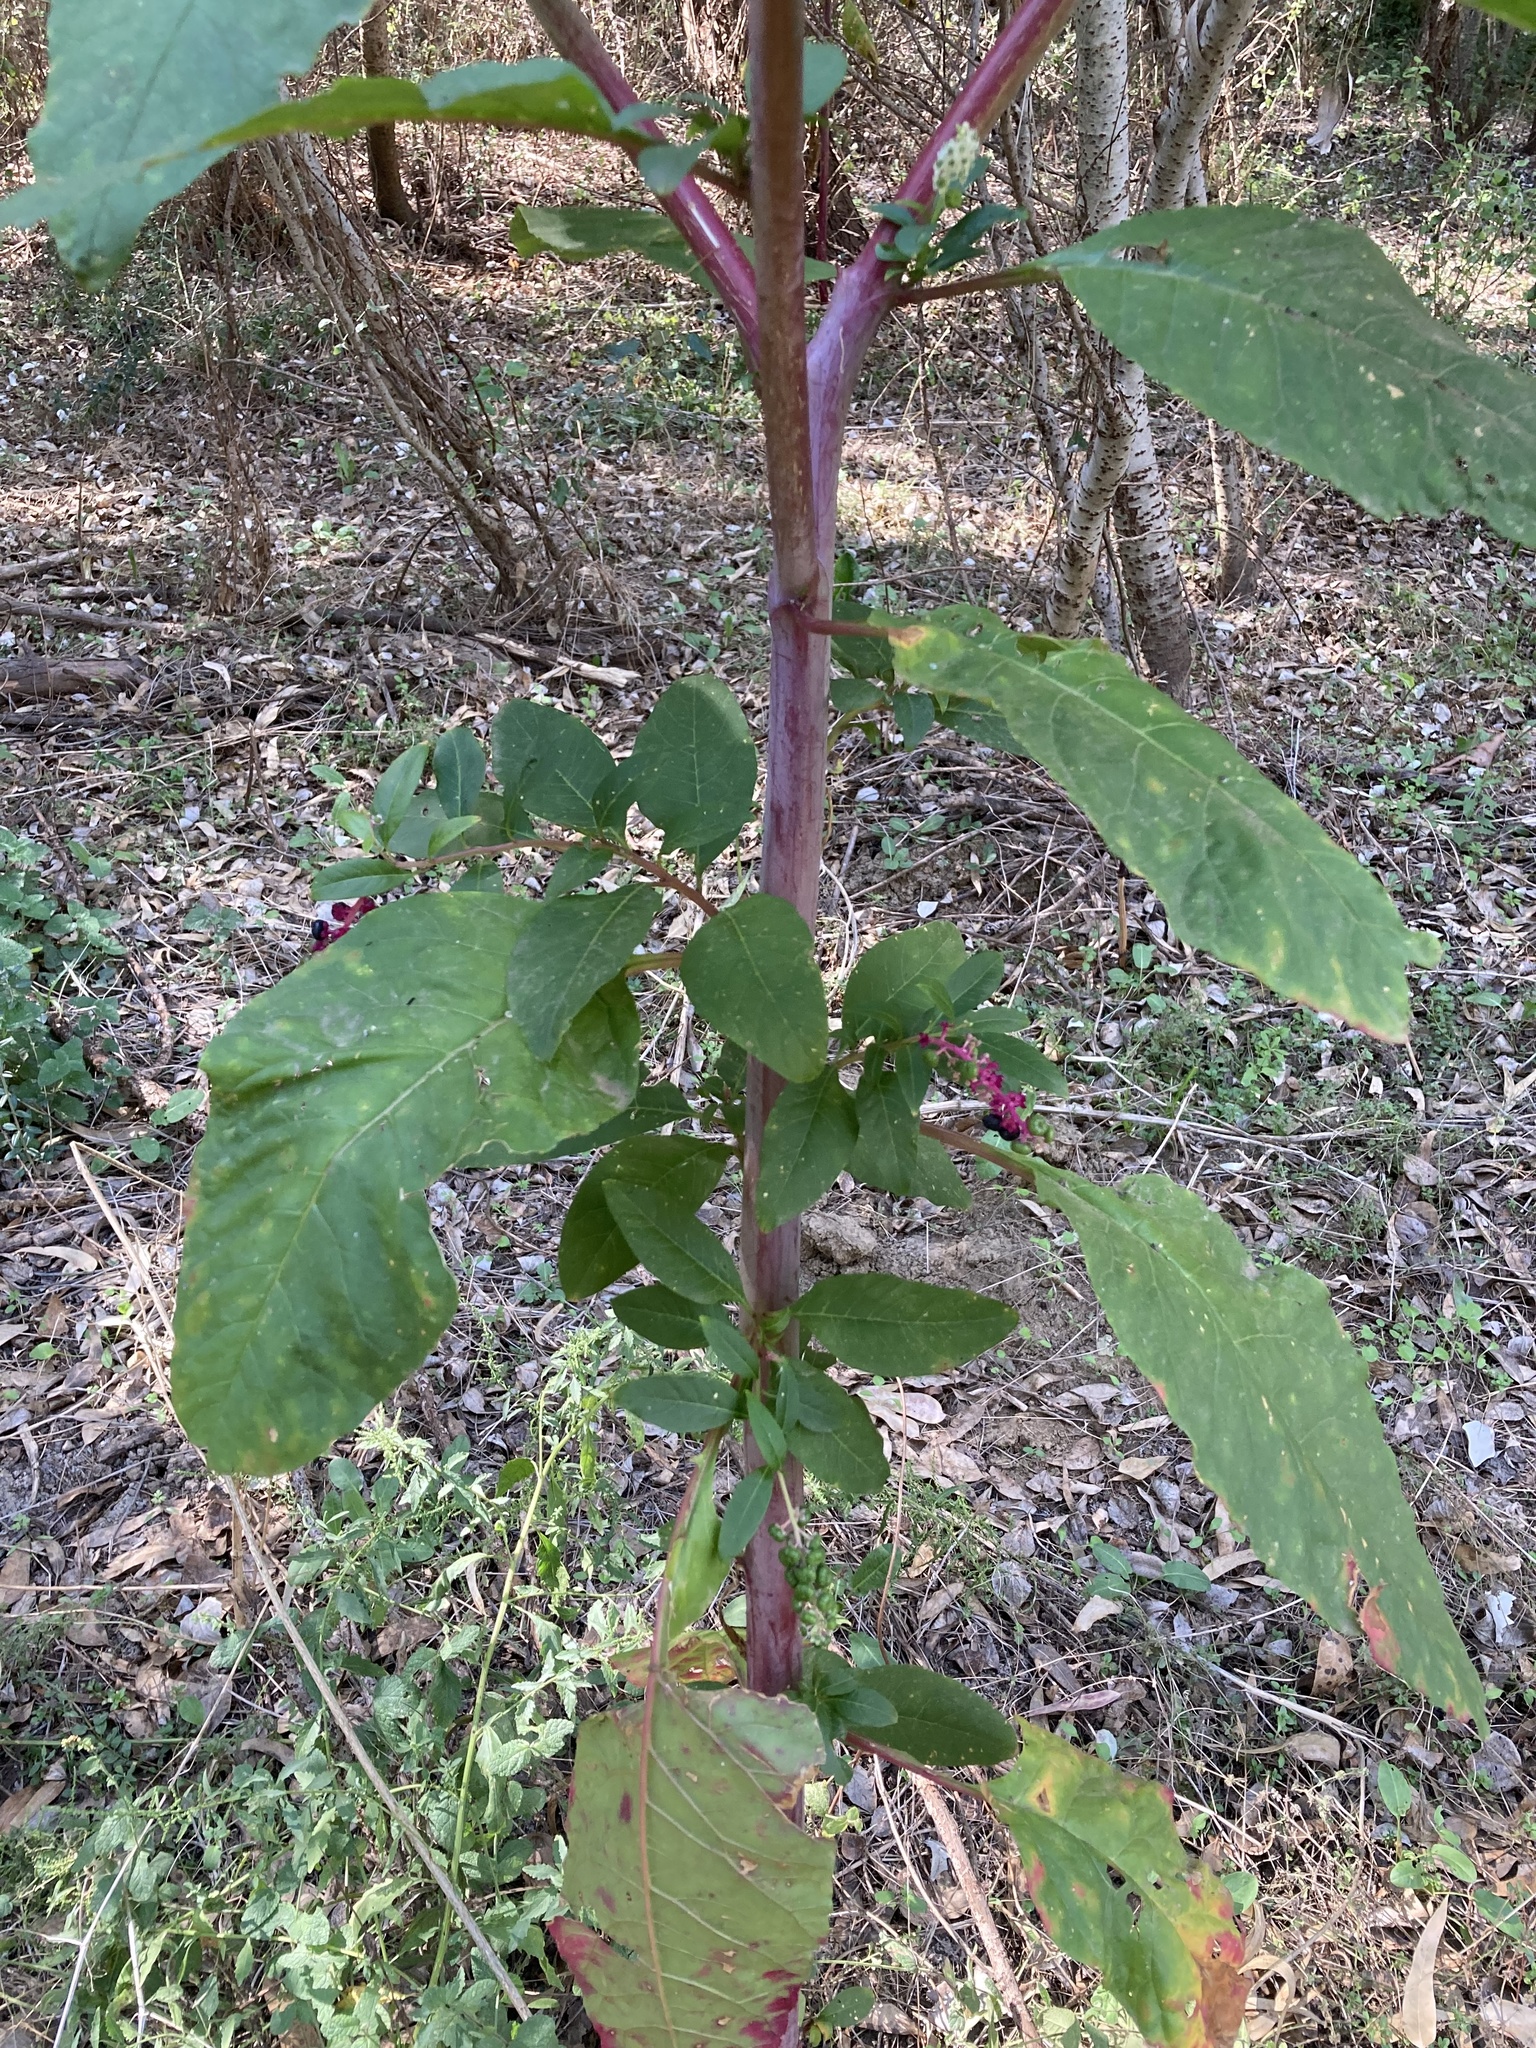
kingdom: Plantae
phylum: Tracheophyta
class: Magnoliopsida
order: Caryophyllales
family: Phytolaccaceae
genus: Phytolacca
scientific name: Phytolacca americana
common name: American pokeweed
